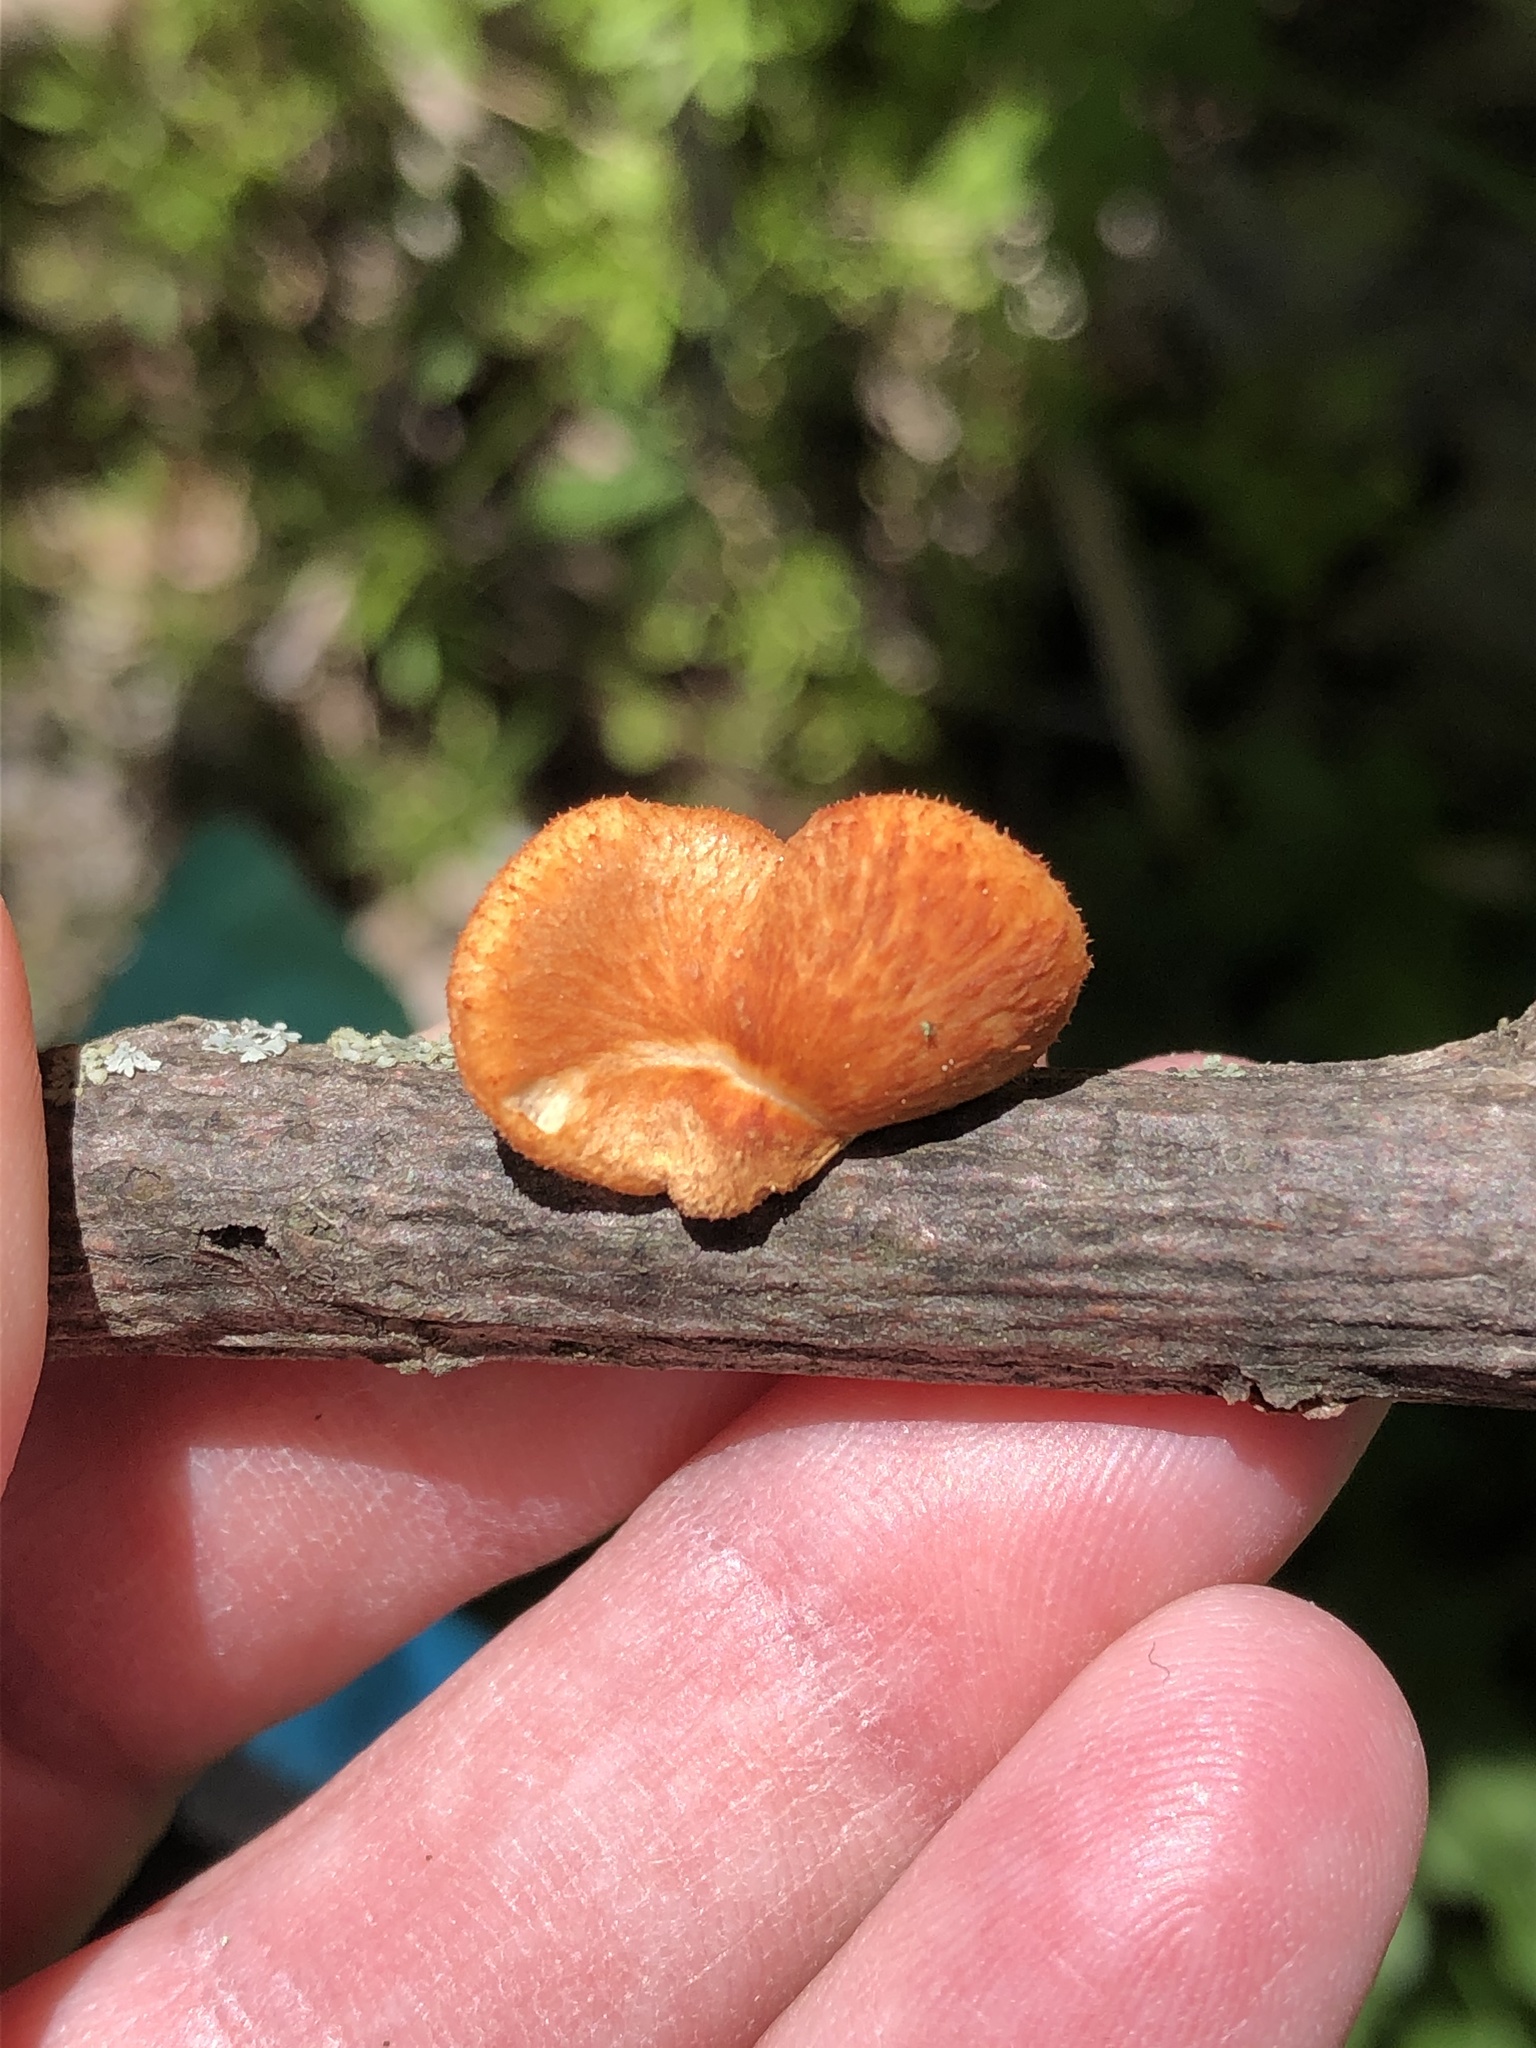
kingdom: Fungi
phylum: Basidiomycota
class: Agaricomycetes
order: Polyporales
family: Polyporaceae
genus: Neofavolus
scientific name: Neofavolus alveolaris
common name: Hexagonal-pored polypore
